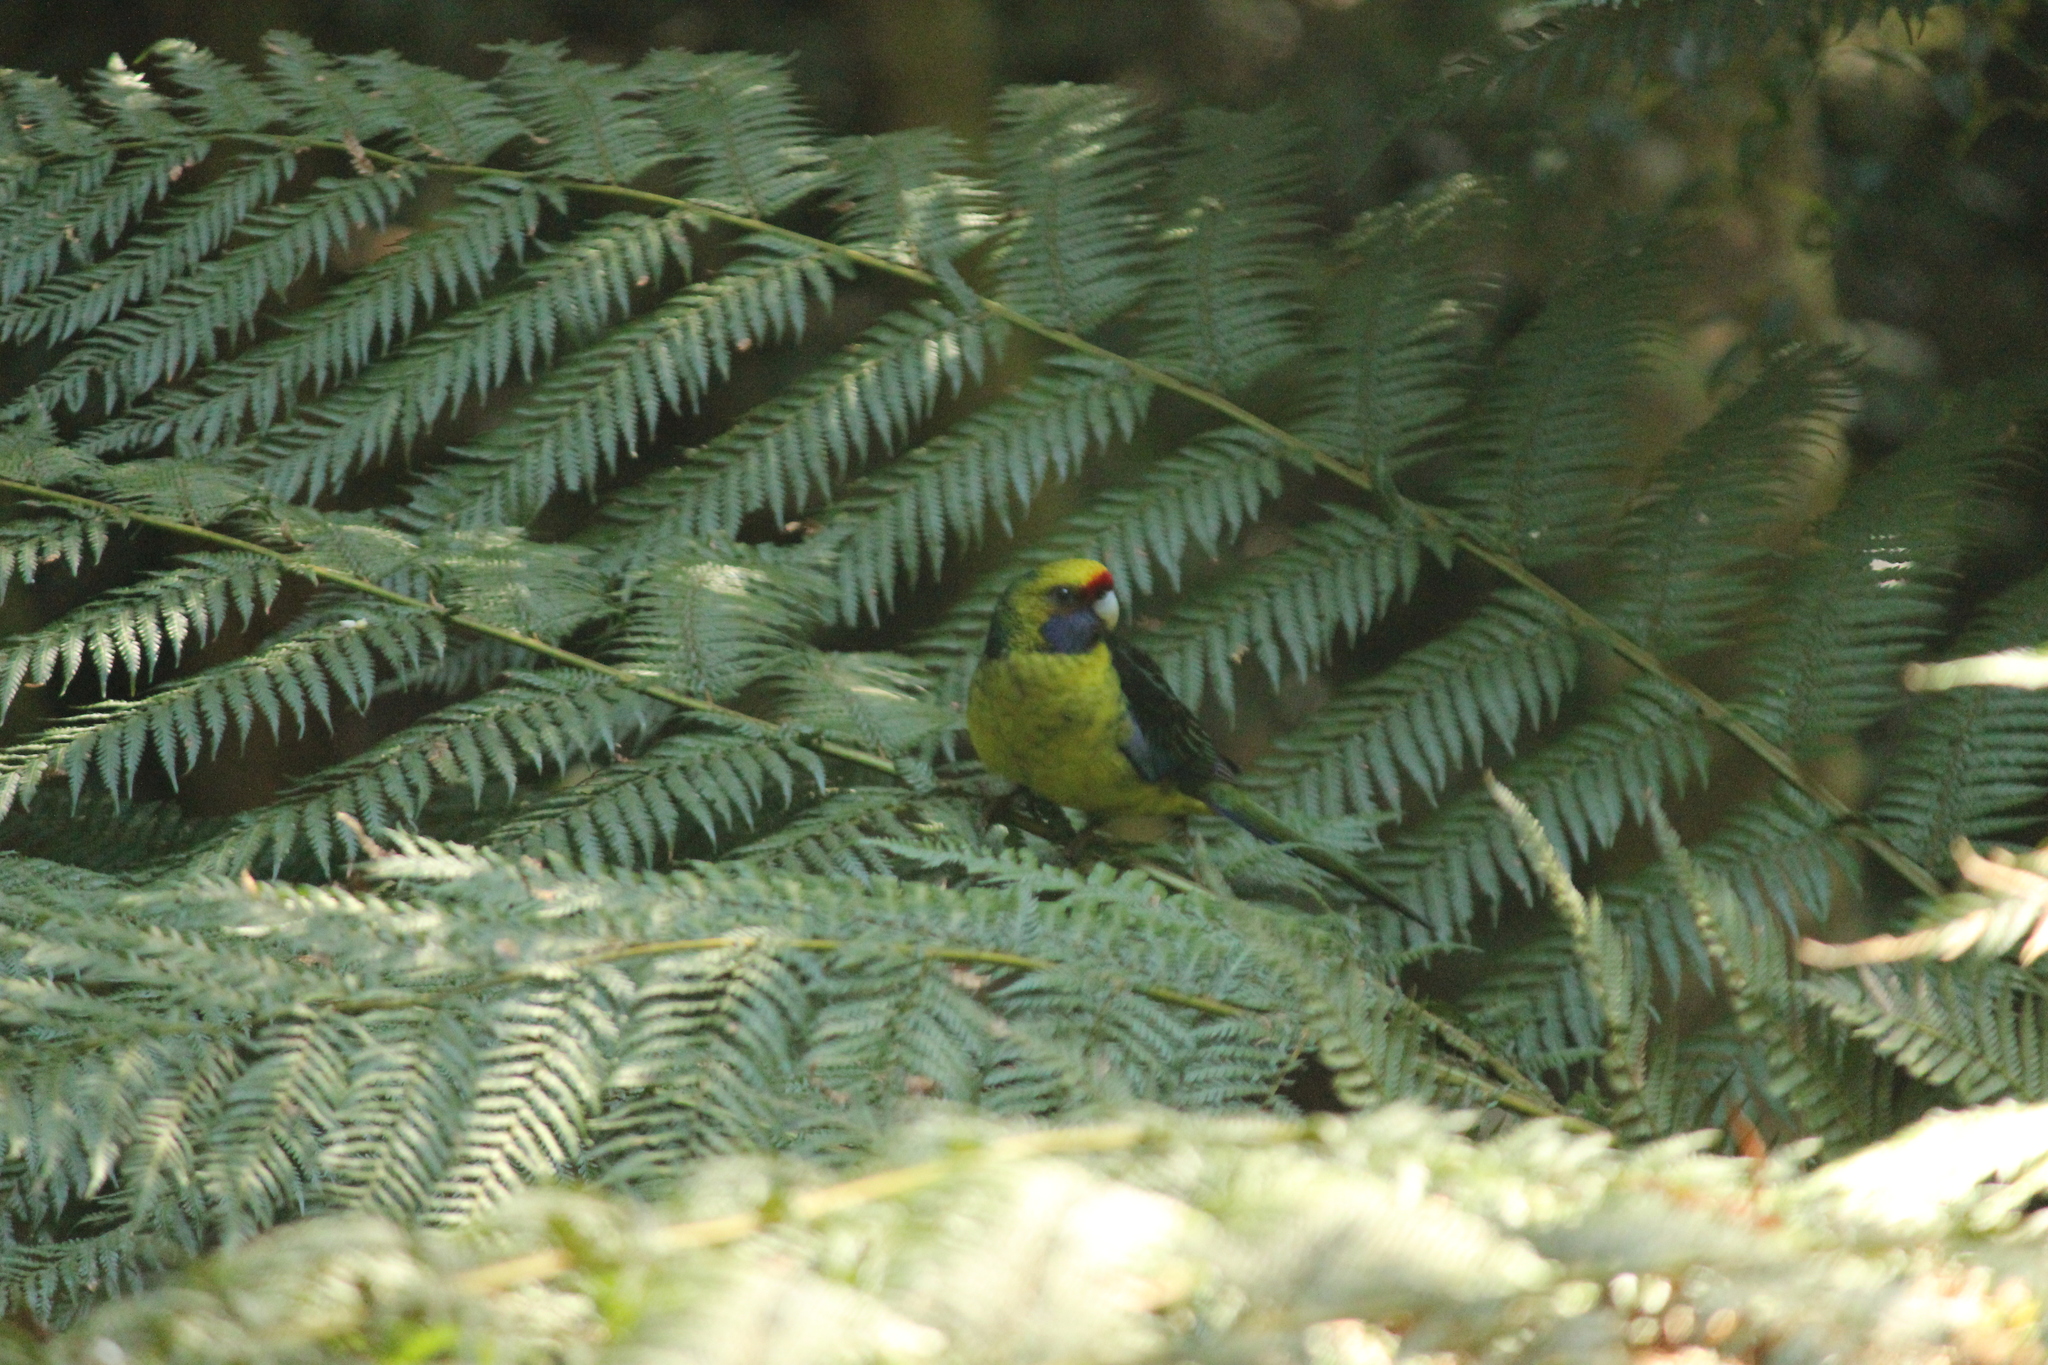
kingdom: Animalia
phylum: Chordata
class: Aves
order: Psittaciformes
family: Psittacidae
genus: Platycercus
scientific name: Platycercus caledonicus
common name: Green rosella
